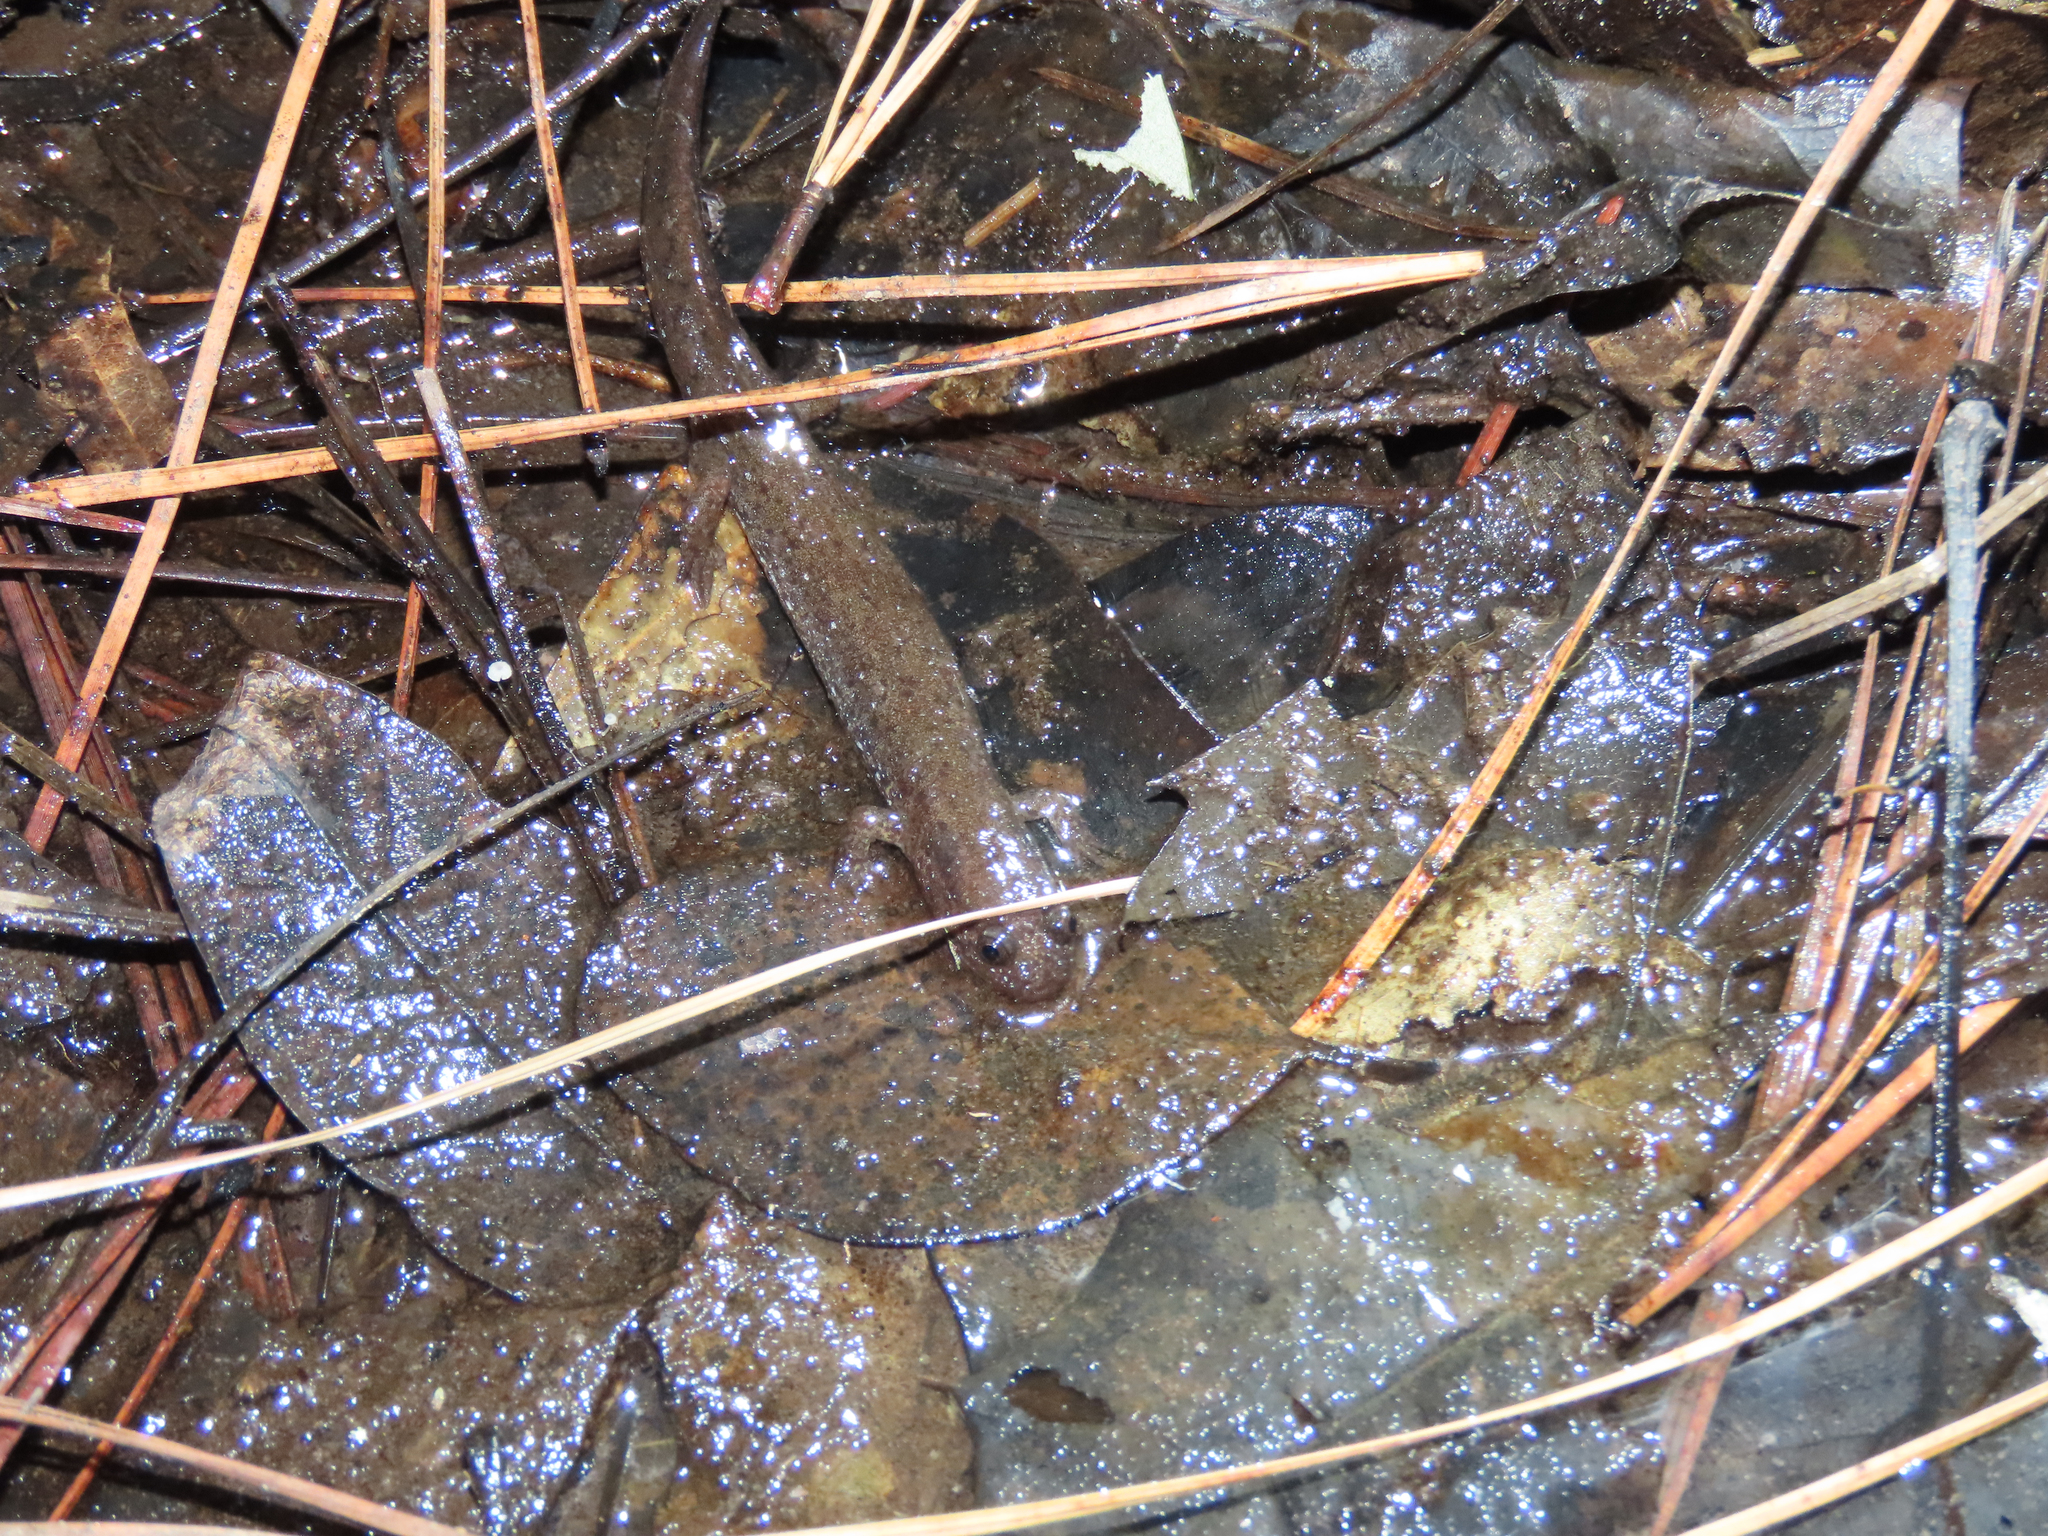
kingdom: Animalia
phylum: Chordata
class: Amphibia
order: Caudata
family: Plethodontidae
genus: Desmognathus
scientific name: Desmognathus fuscus
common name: Northern dusky salamander
